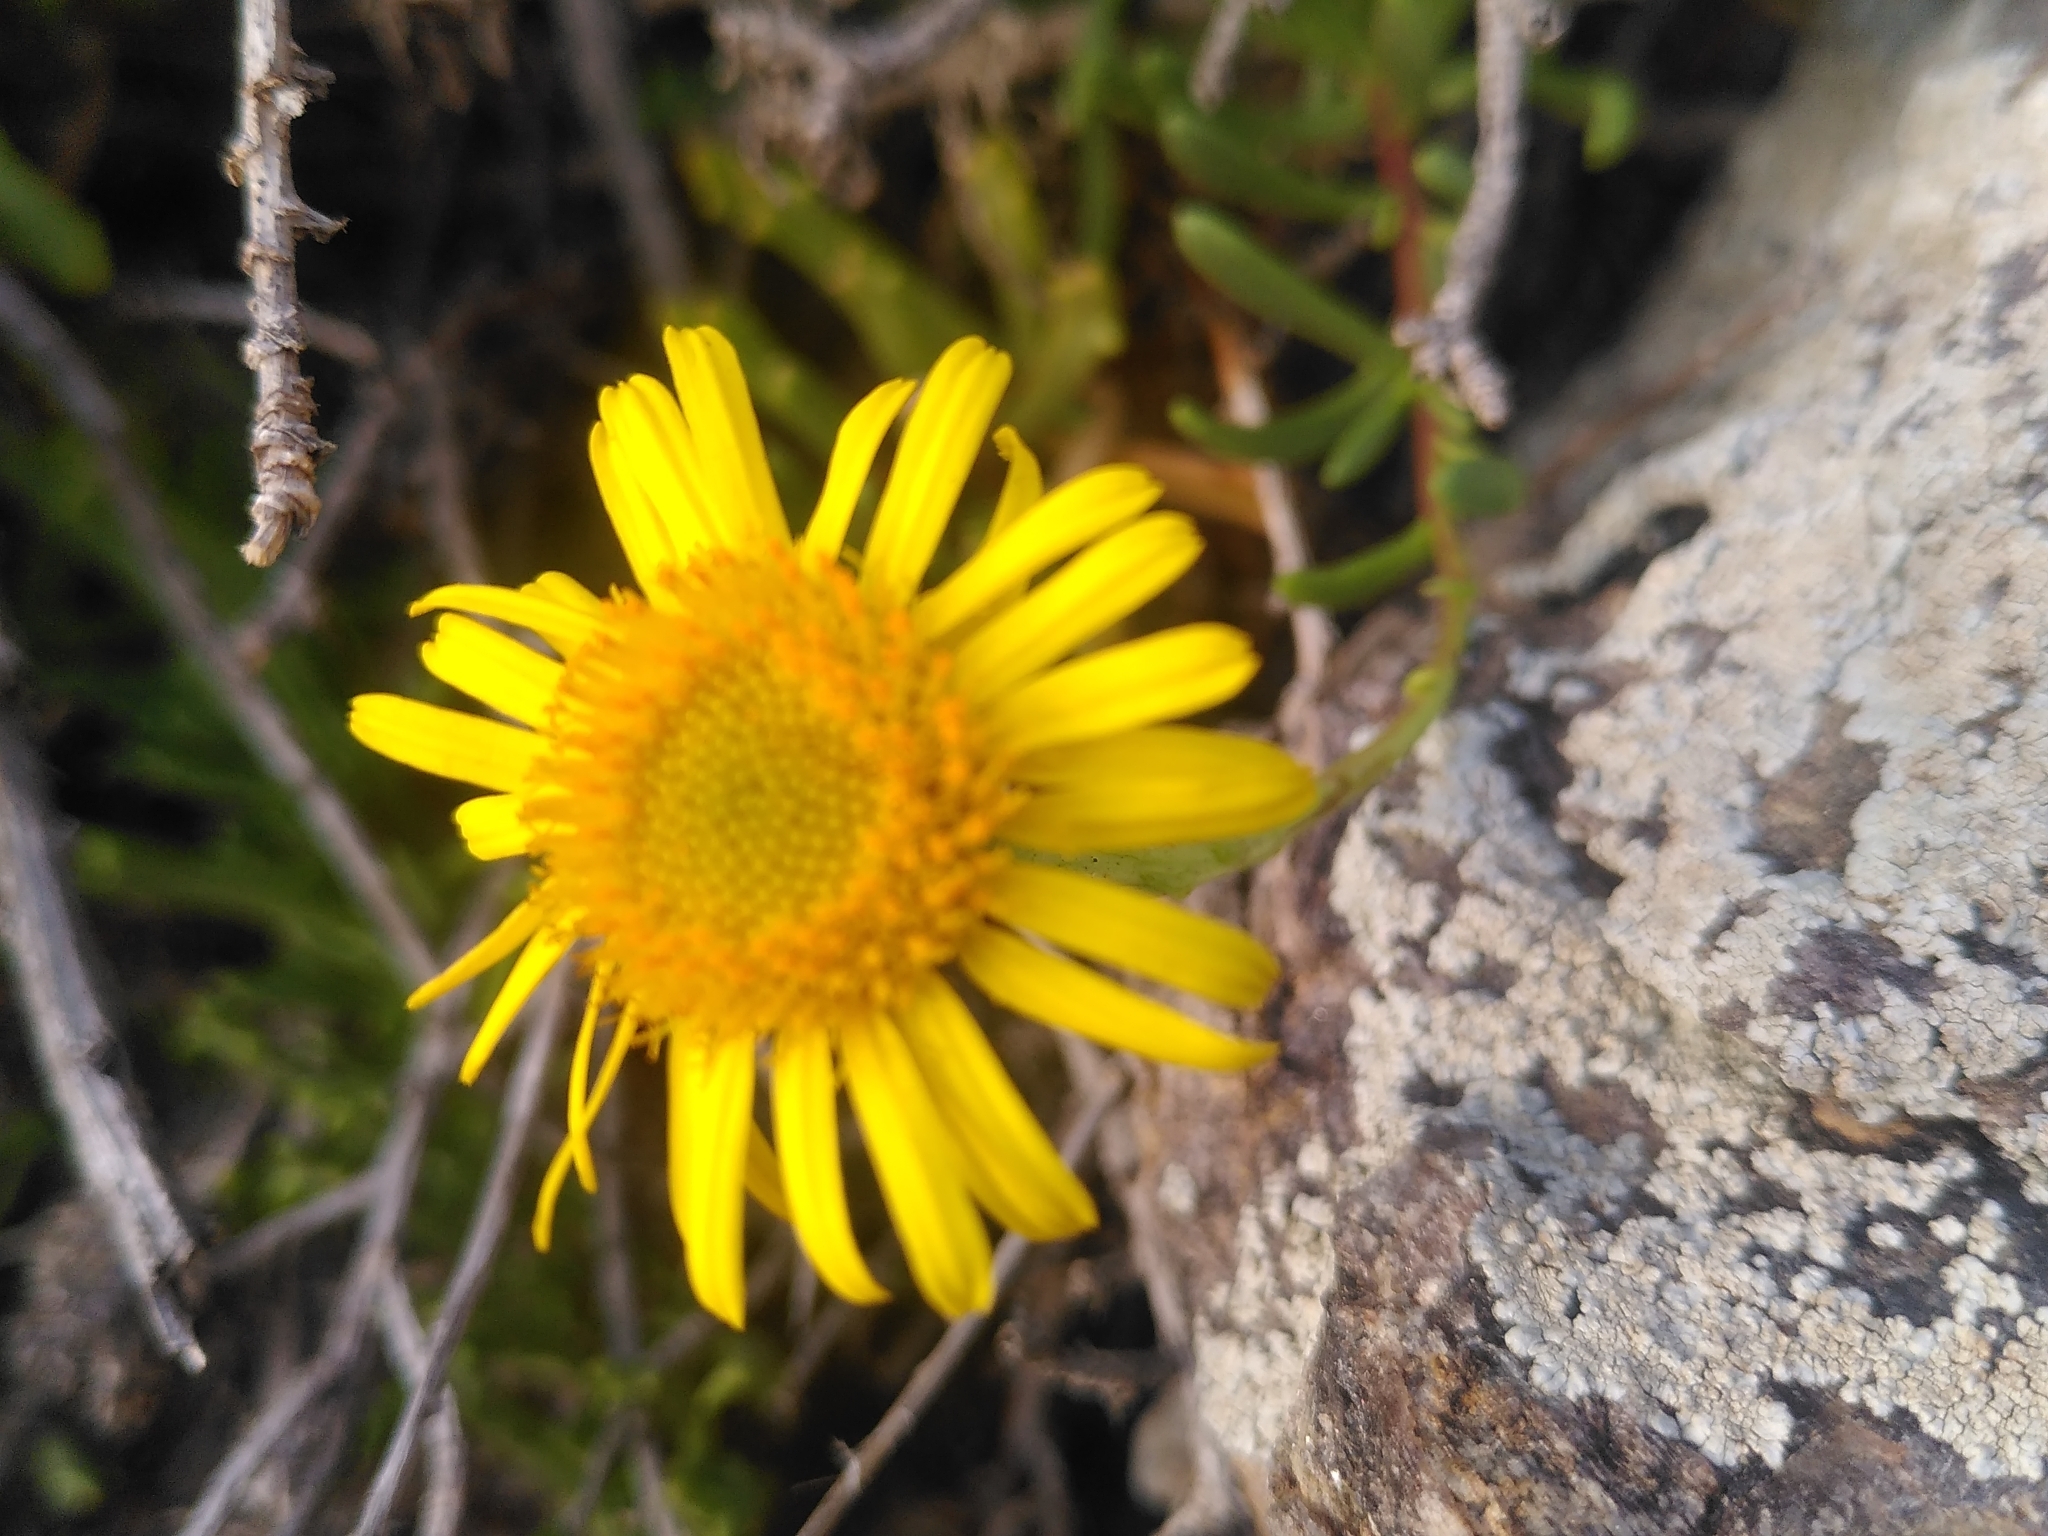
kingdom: Plantae
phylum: Tracheophyta
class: Magnoliopsida
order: Asterales
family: Asteraceae
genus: Limbarda
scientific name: Limbarda crithmoides
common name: Golden samphire
